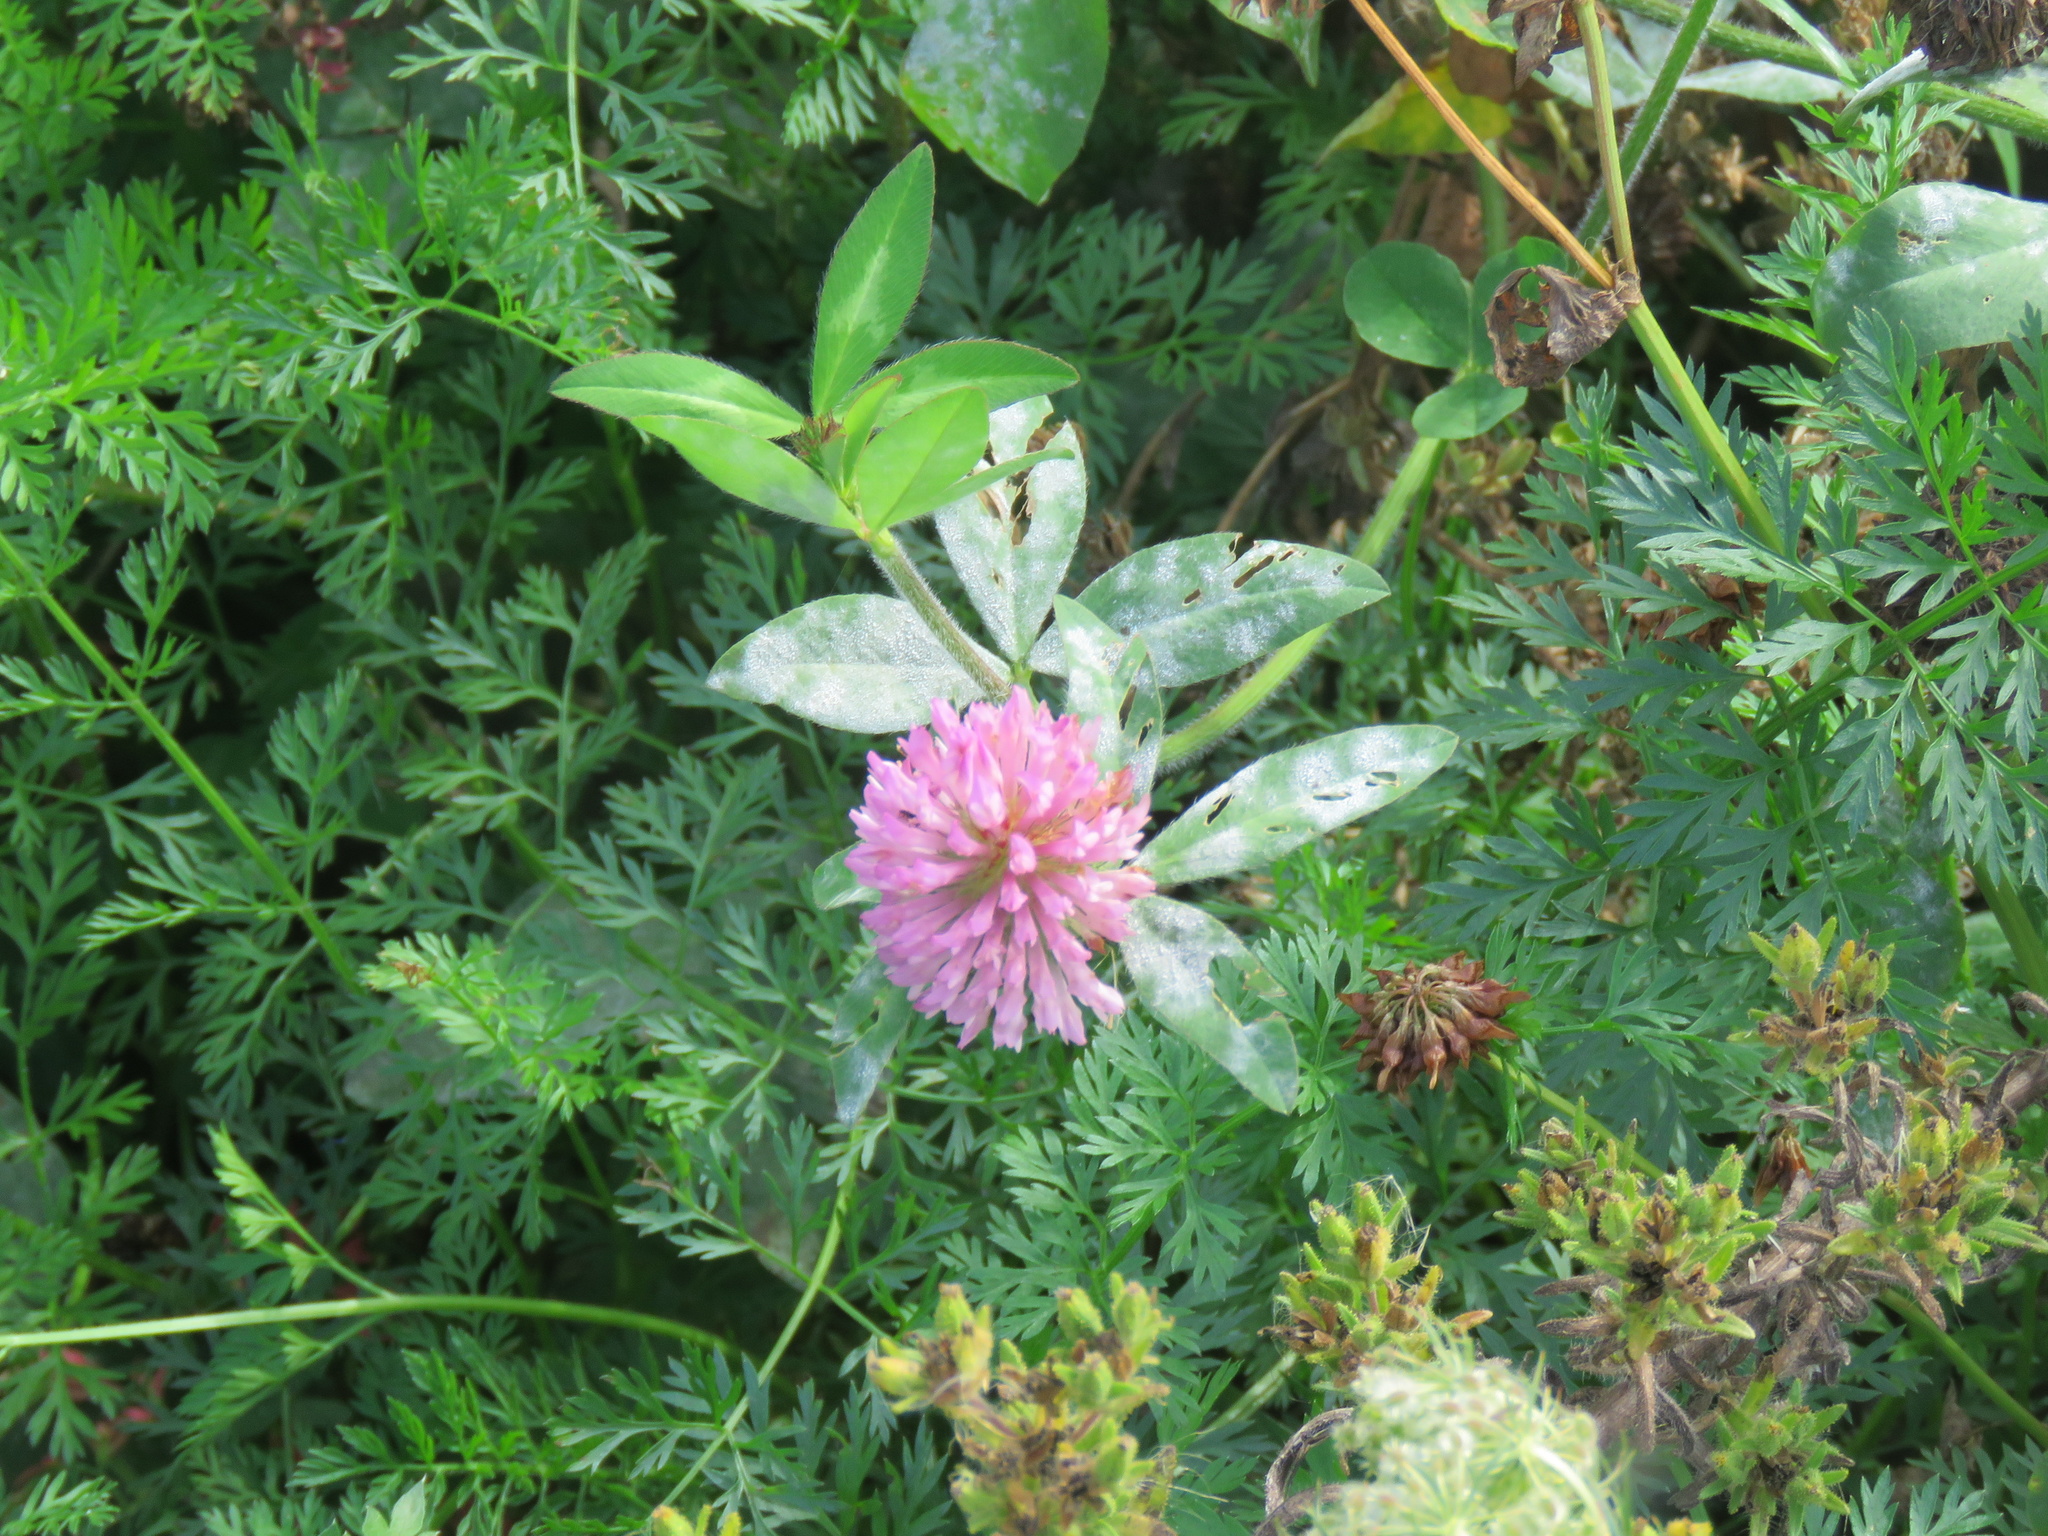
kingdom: Plantae
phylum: Tracheophyta
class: Magnoliopsida
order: Fabales
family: Fabaceae
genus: Trifolium
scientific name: Trifolium pratense
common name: Red clover
